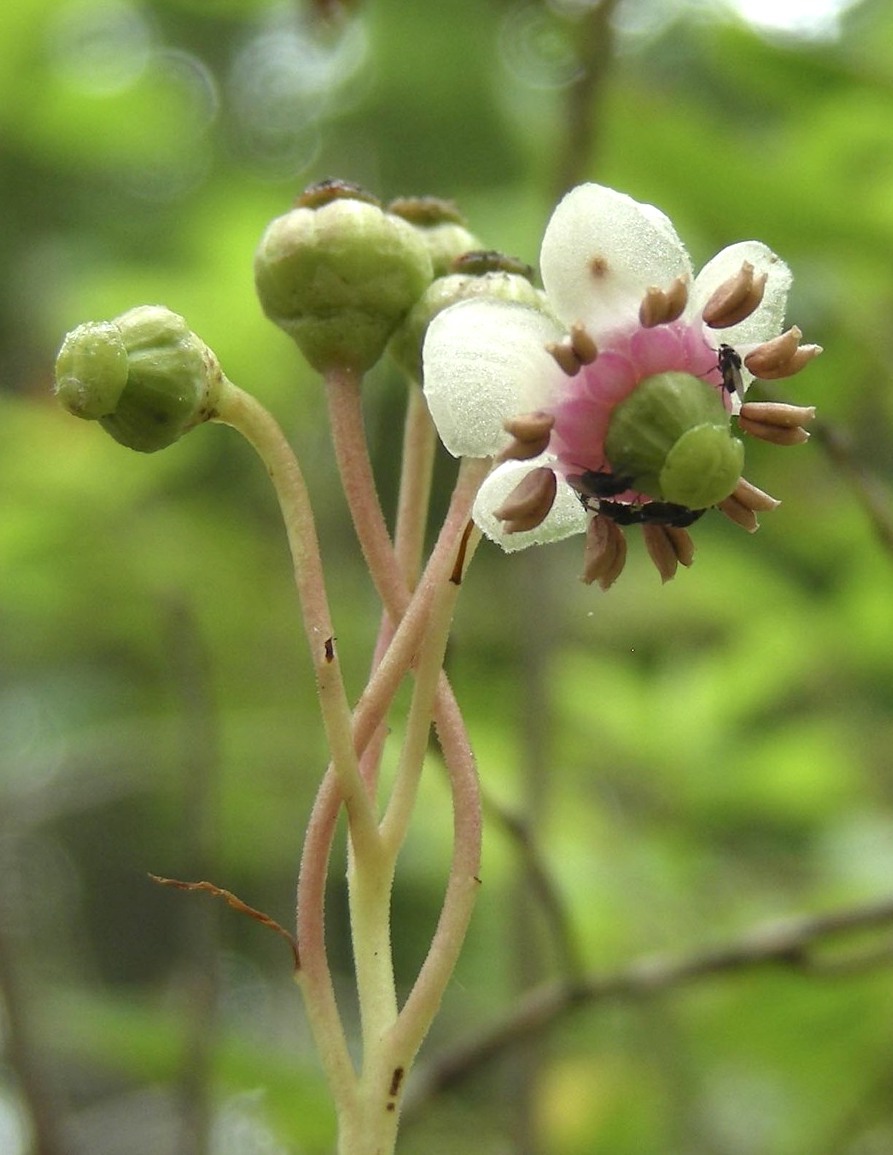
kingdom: Plantae
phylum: Tracheophyta
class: Magnoliopsida
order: Ericales
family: Ericaceae
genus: Chimaphila
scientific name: Chimaphila umbellata
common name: Pipsissewa
